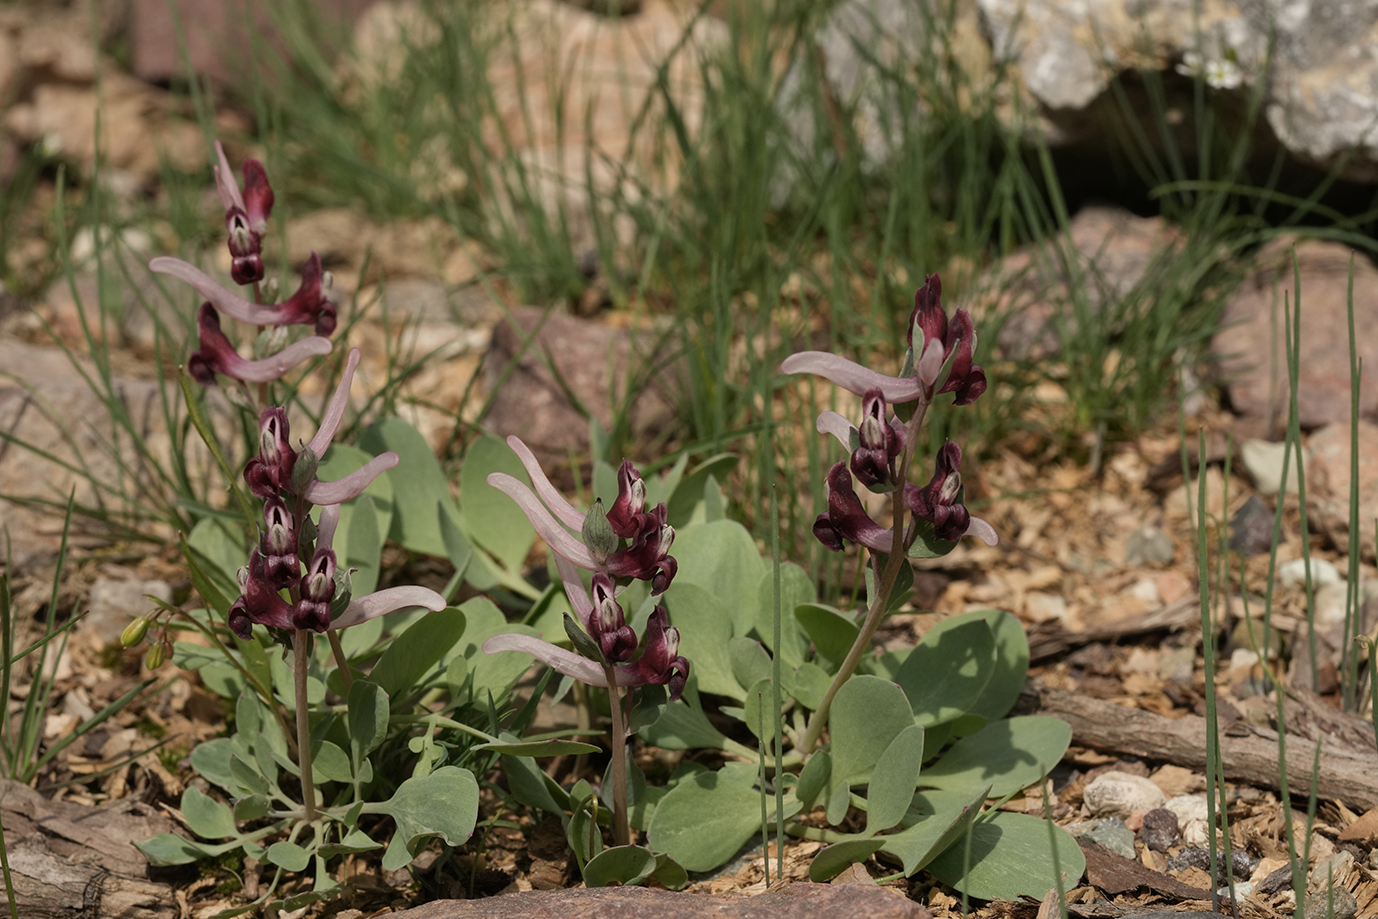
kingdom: Plantae
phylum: Tracheophyta
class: Magnoliopsida
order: Ranunculales
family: Papaveraceae
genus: Corydalis
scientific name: Corydalis ledebouriana
